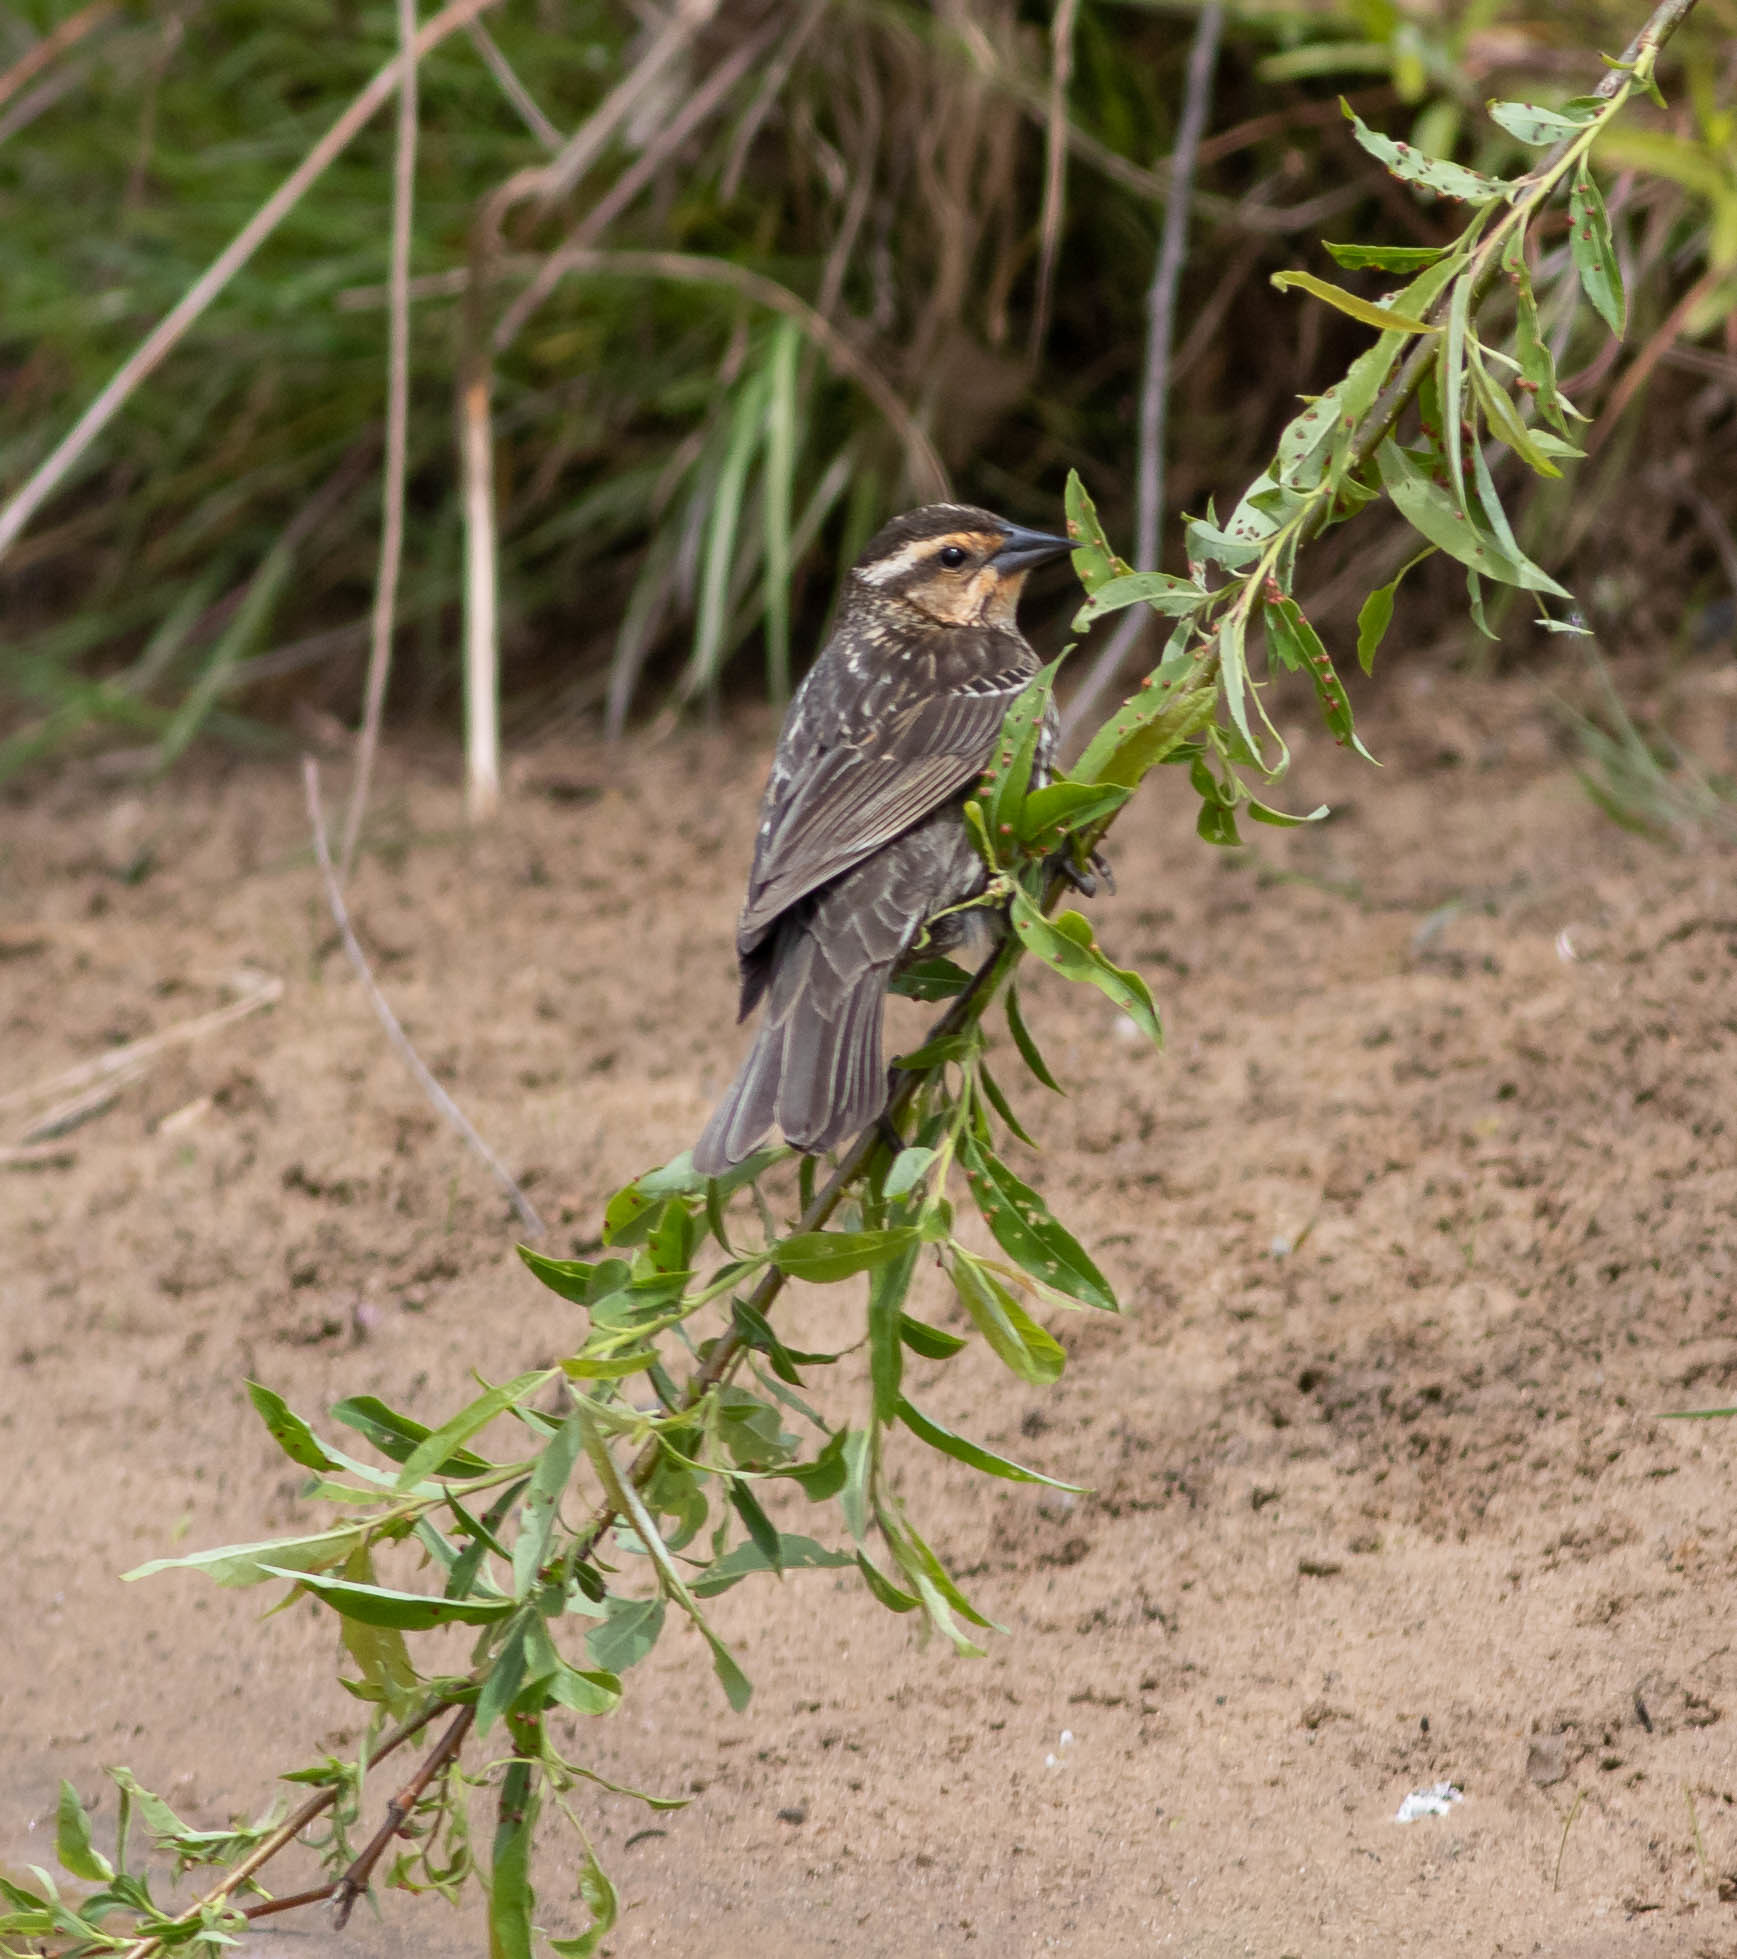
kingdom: Animalia
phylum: Chordata
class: Aves
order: Passeriformes
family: Icteridae
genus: Agelaius
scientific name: Agelaius phoeniceus
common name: Red-winged blackbird
